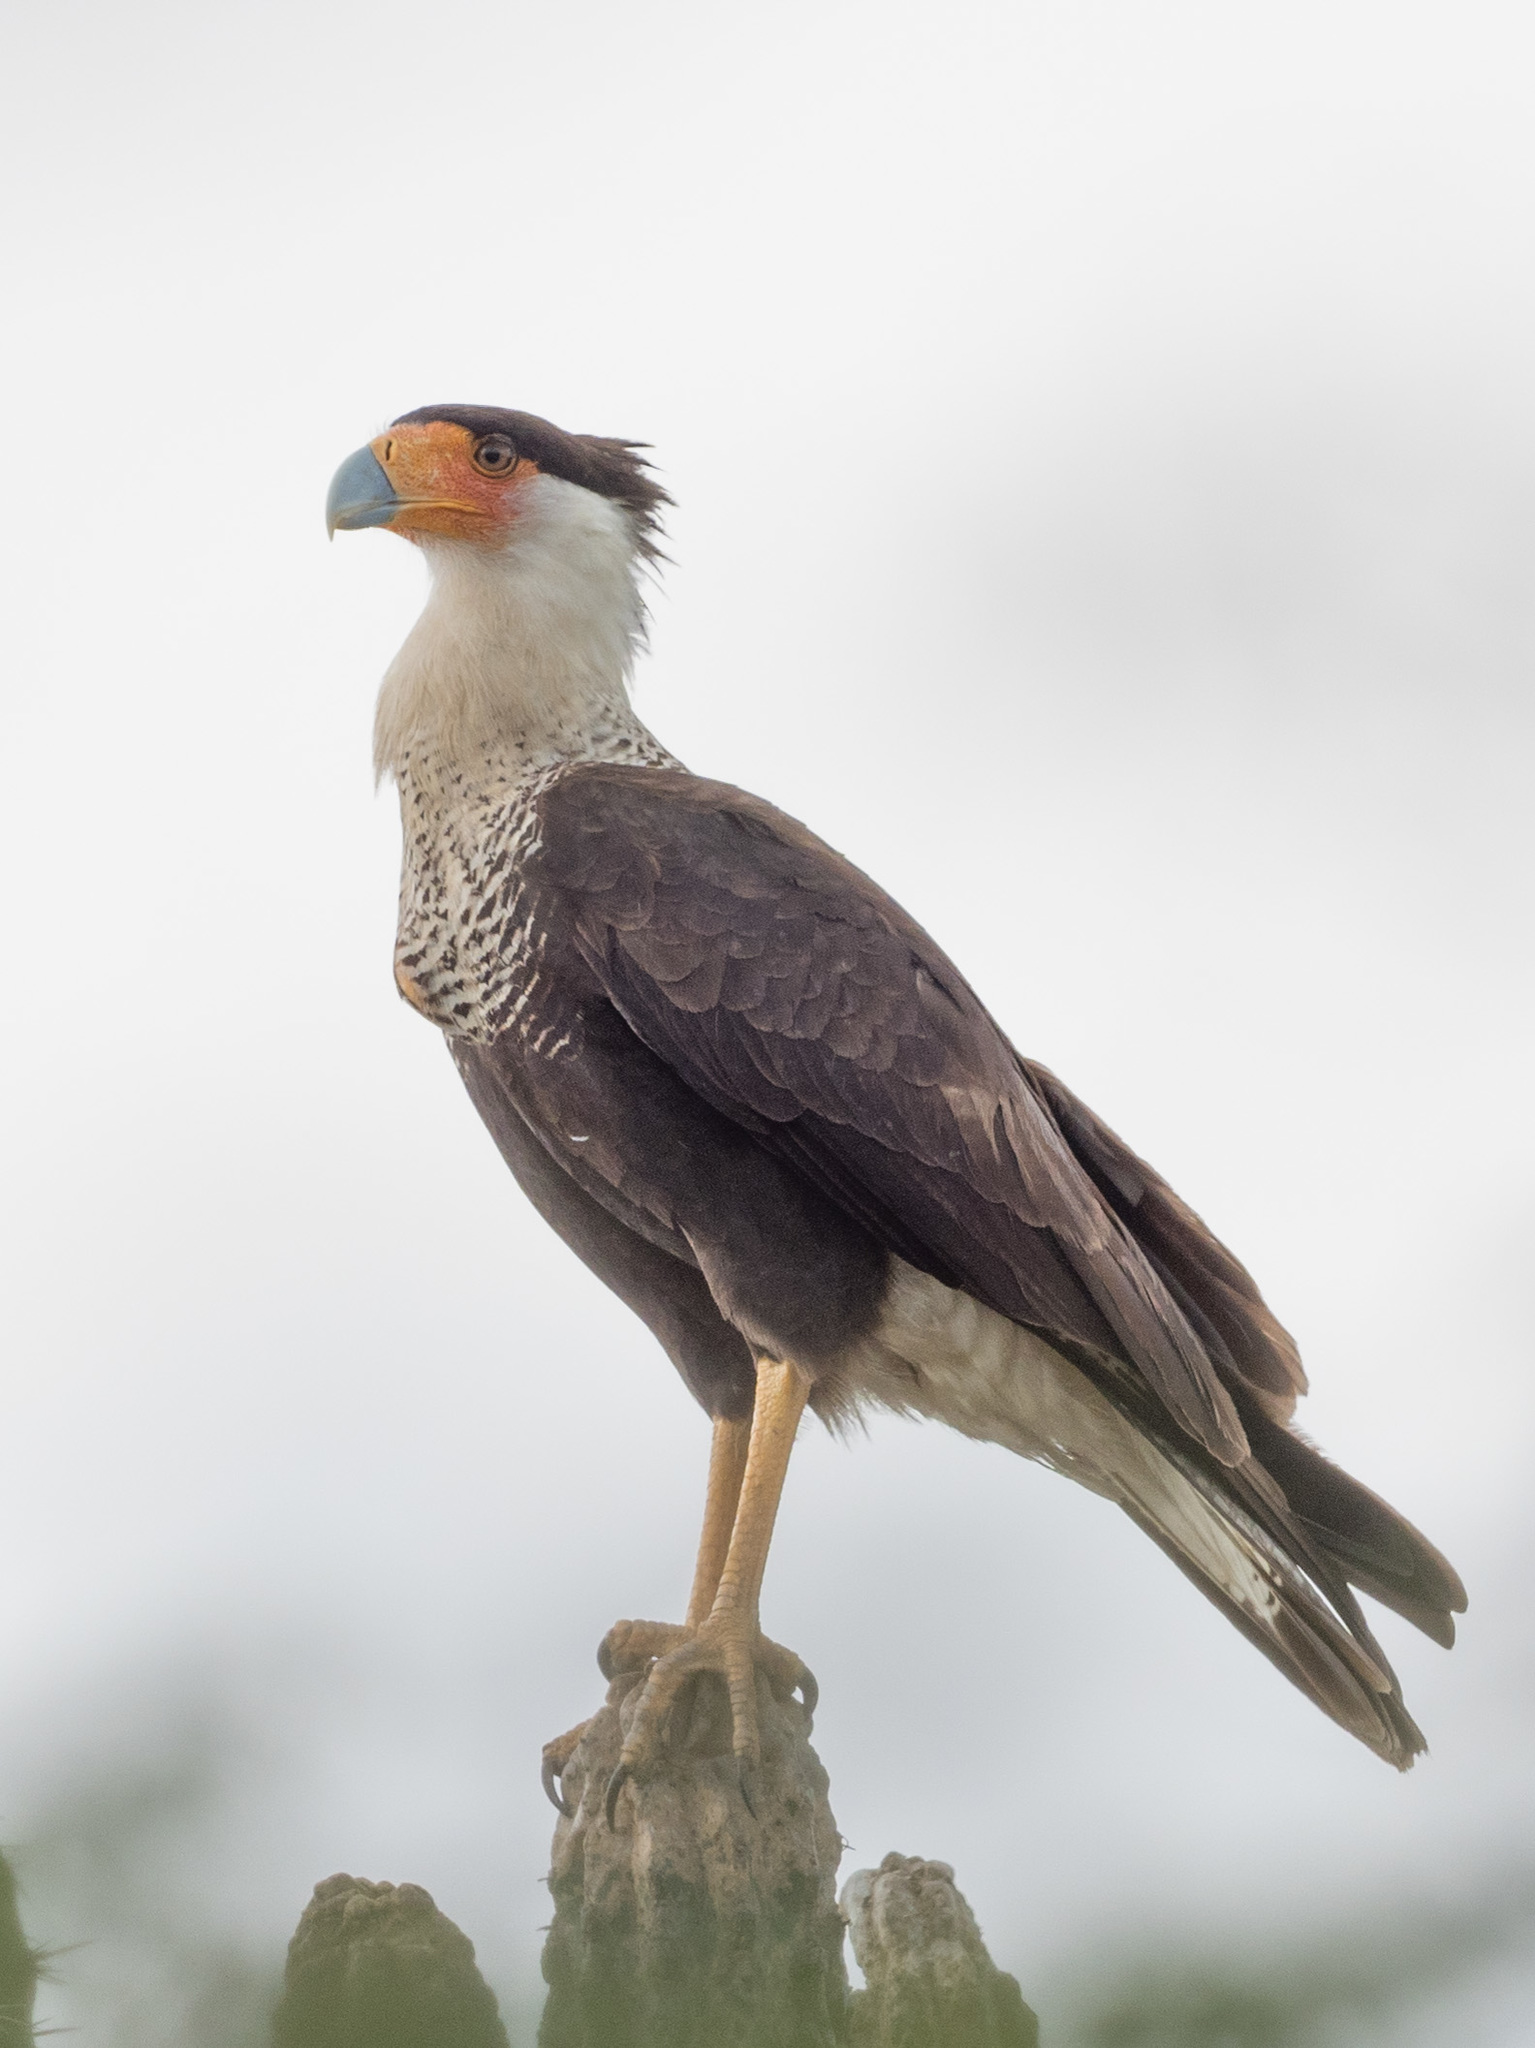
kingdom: Animalia
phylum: Chordata
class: Aves
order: Falconiformes
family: Falconidae
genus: Caracara
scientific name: Caracara plancus
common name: Southern caracara
